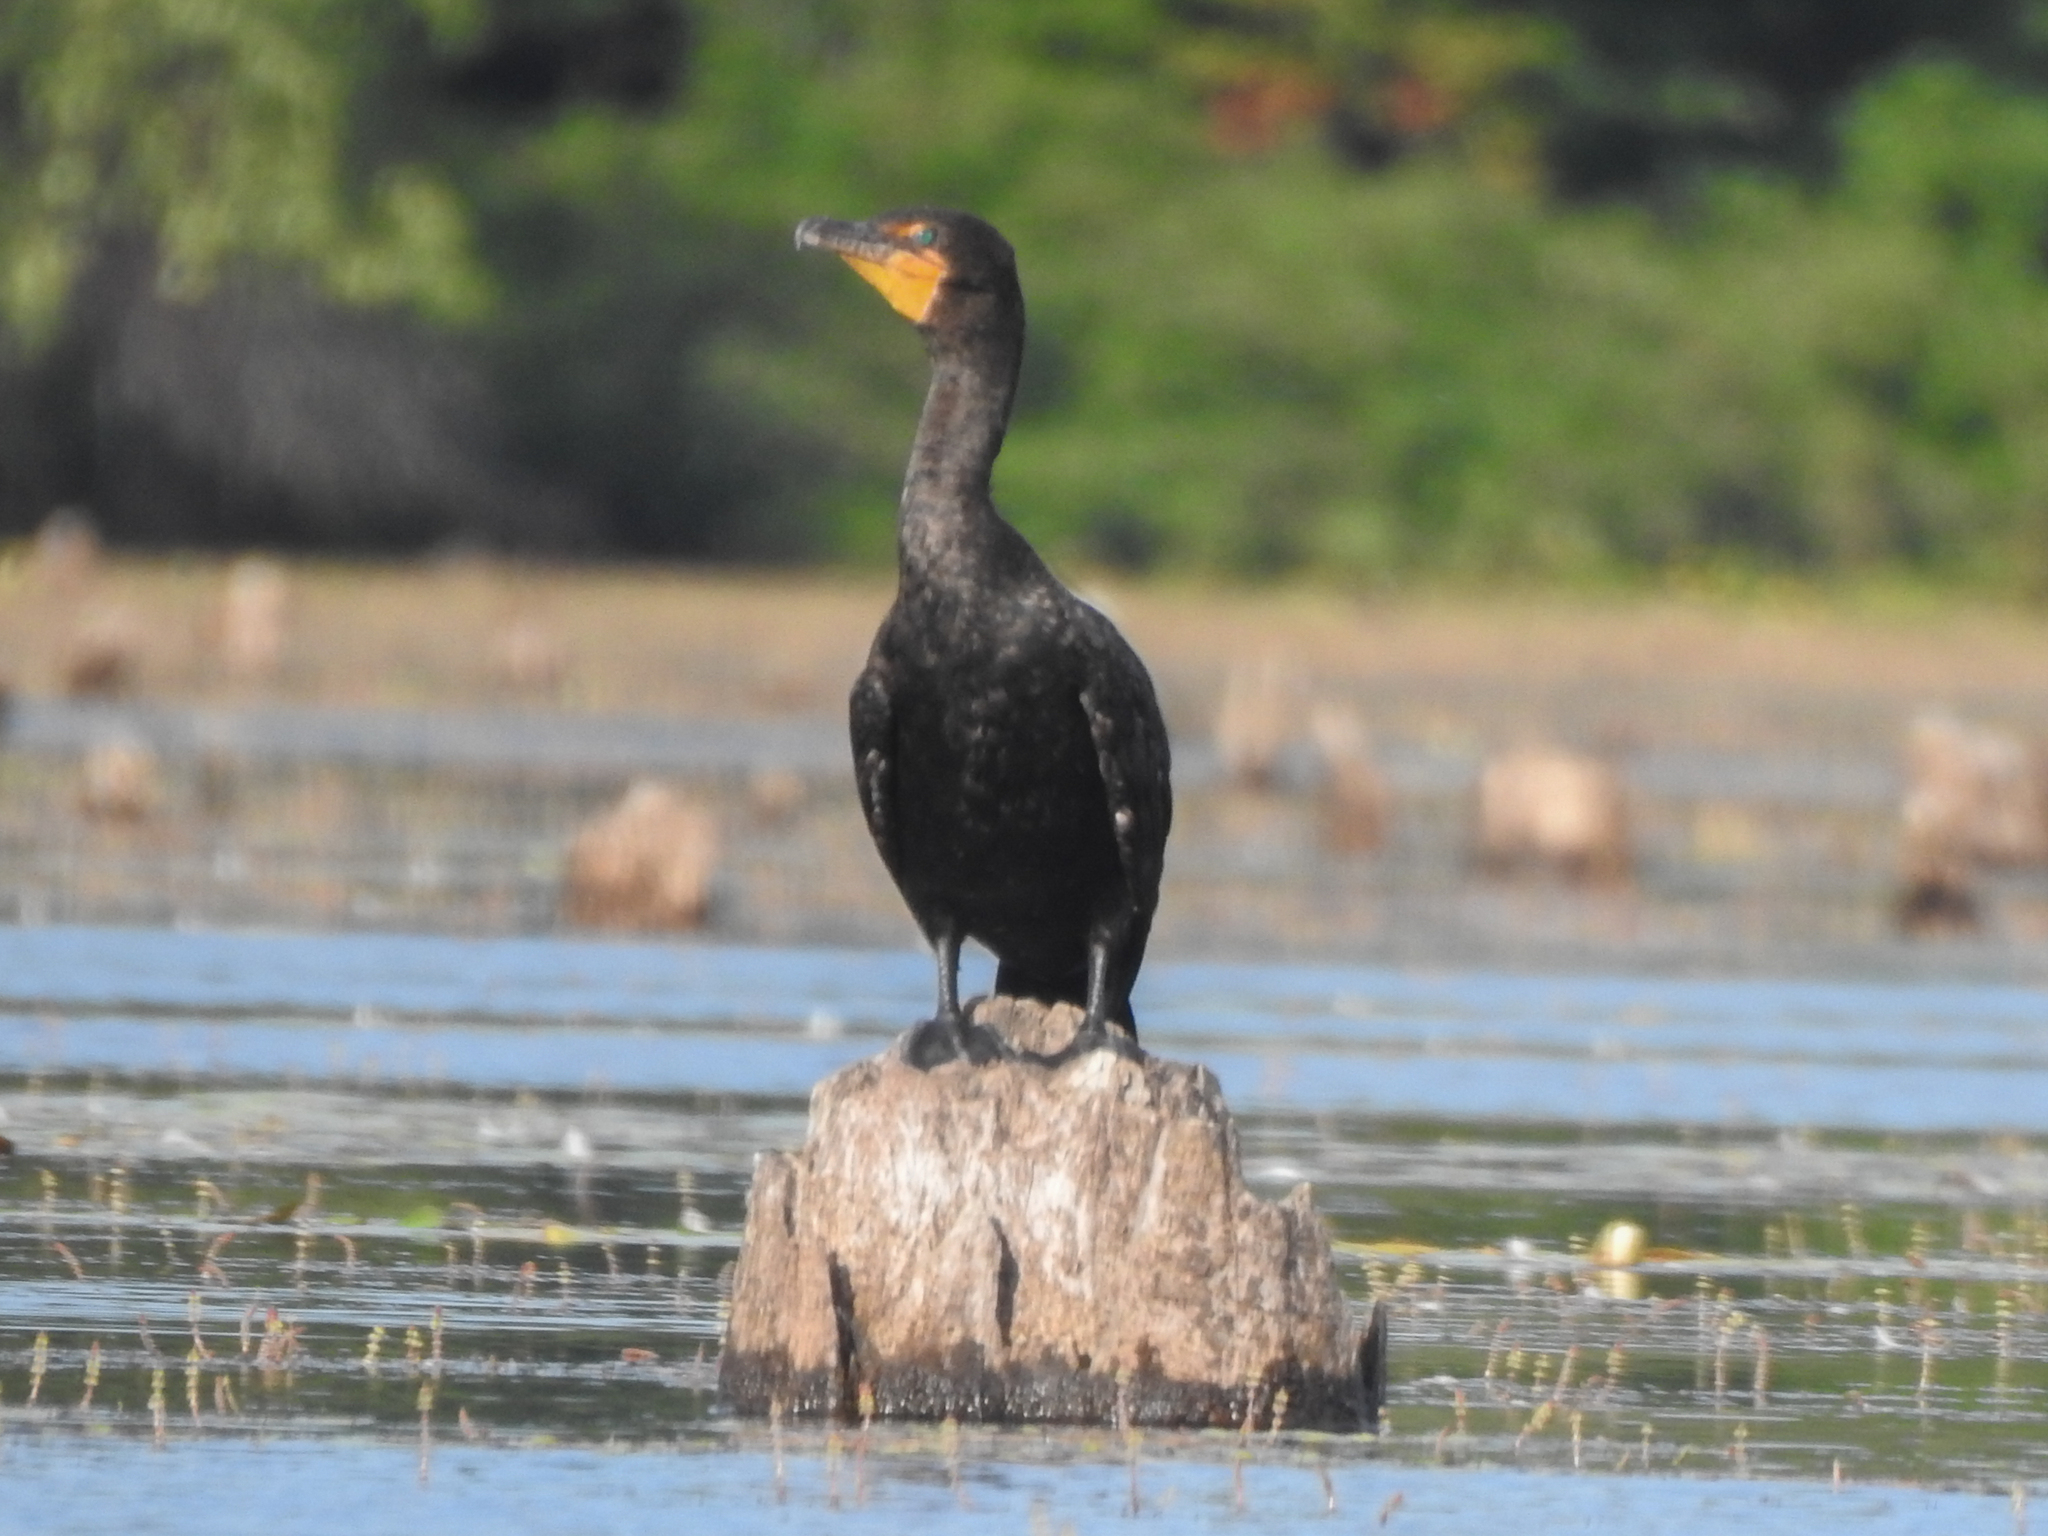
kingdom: Animalia
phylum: Chordata
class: Aves
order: Suliformes
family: Phalacrocoracidae
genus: Phalacrocorax
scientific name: Phalacrocorax auritus
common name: Double-crested cormorant
